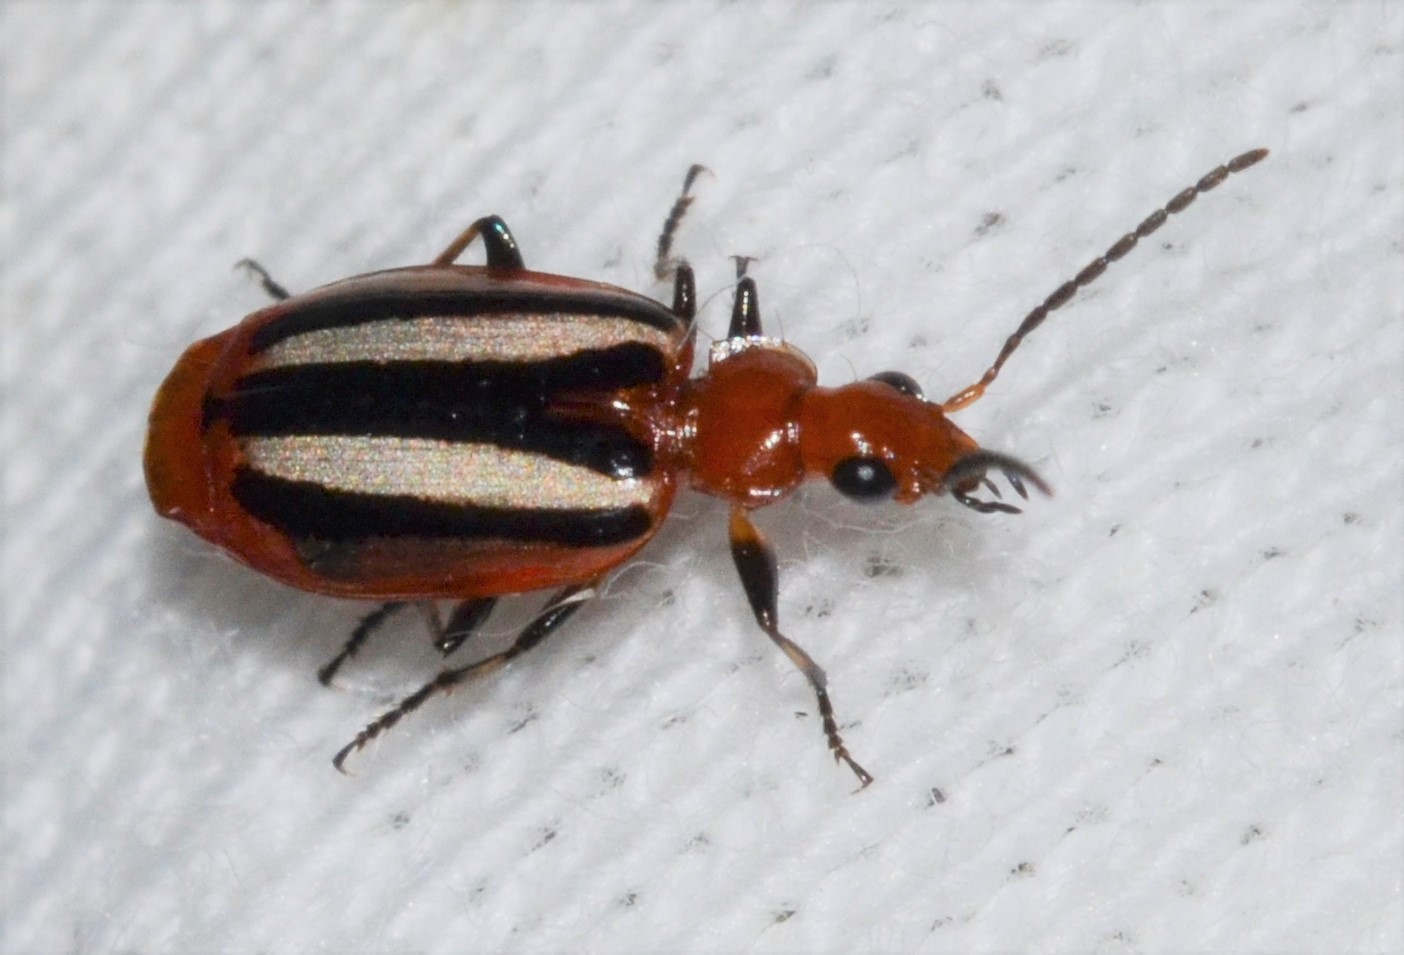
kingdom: Animalia
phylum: Arthropoda
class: Insecta
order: Coleoptera
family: Carabidae
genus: Lebia
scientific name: Lebia vittata
